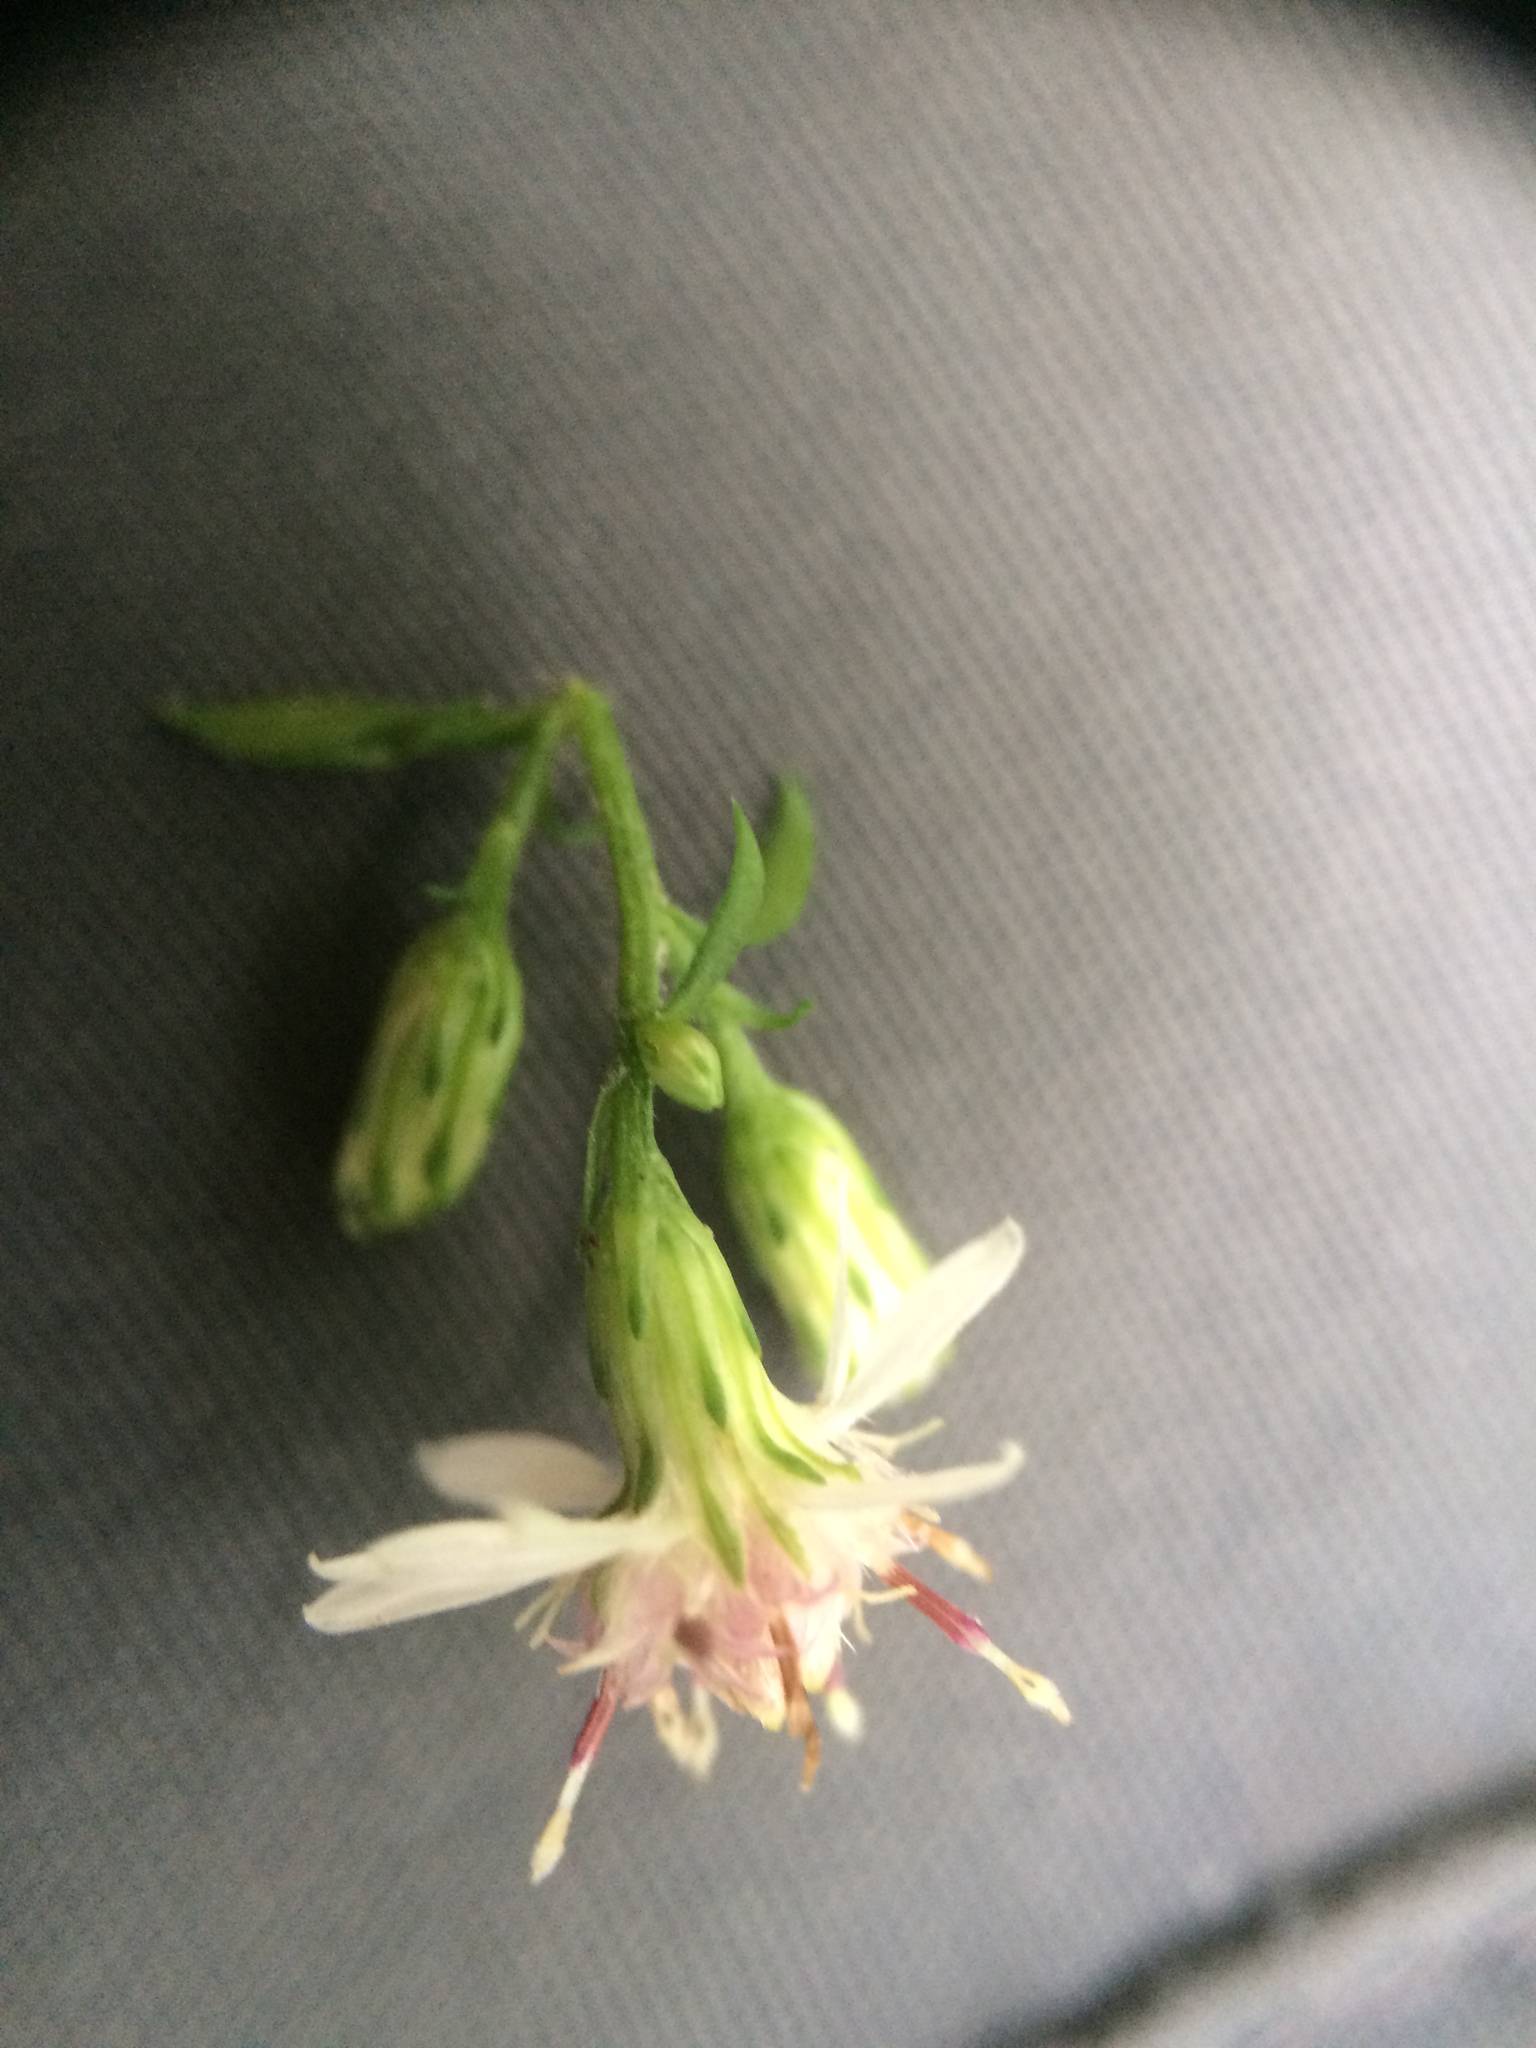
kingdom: Plantae
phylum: Tracheophyta
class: Magnoliopsida
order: Asterales
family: Asteraceae
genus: Symphyotrichum
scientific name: Symphyotrichum lateriflorum
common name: Calico aster
